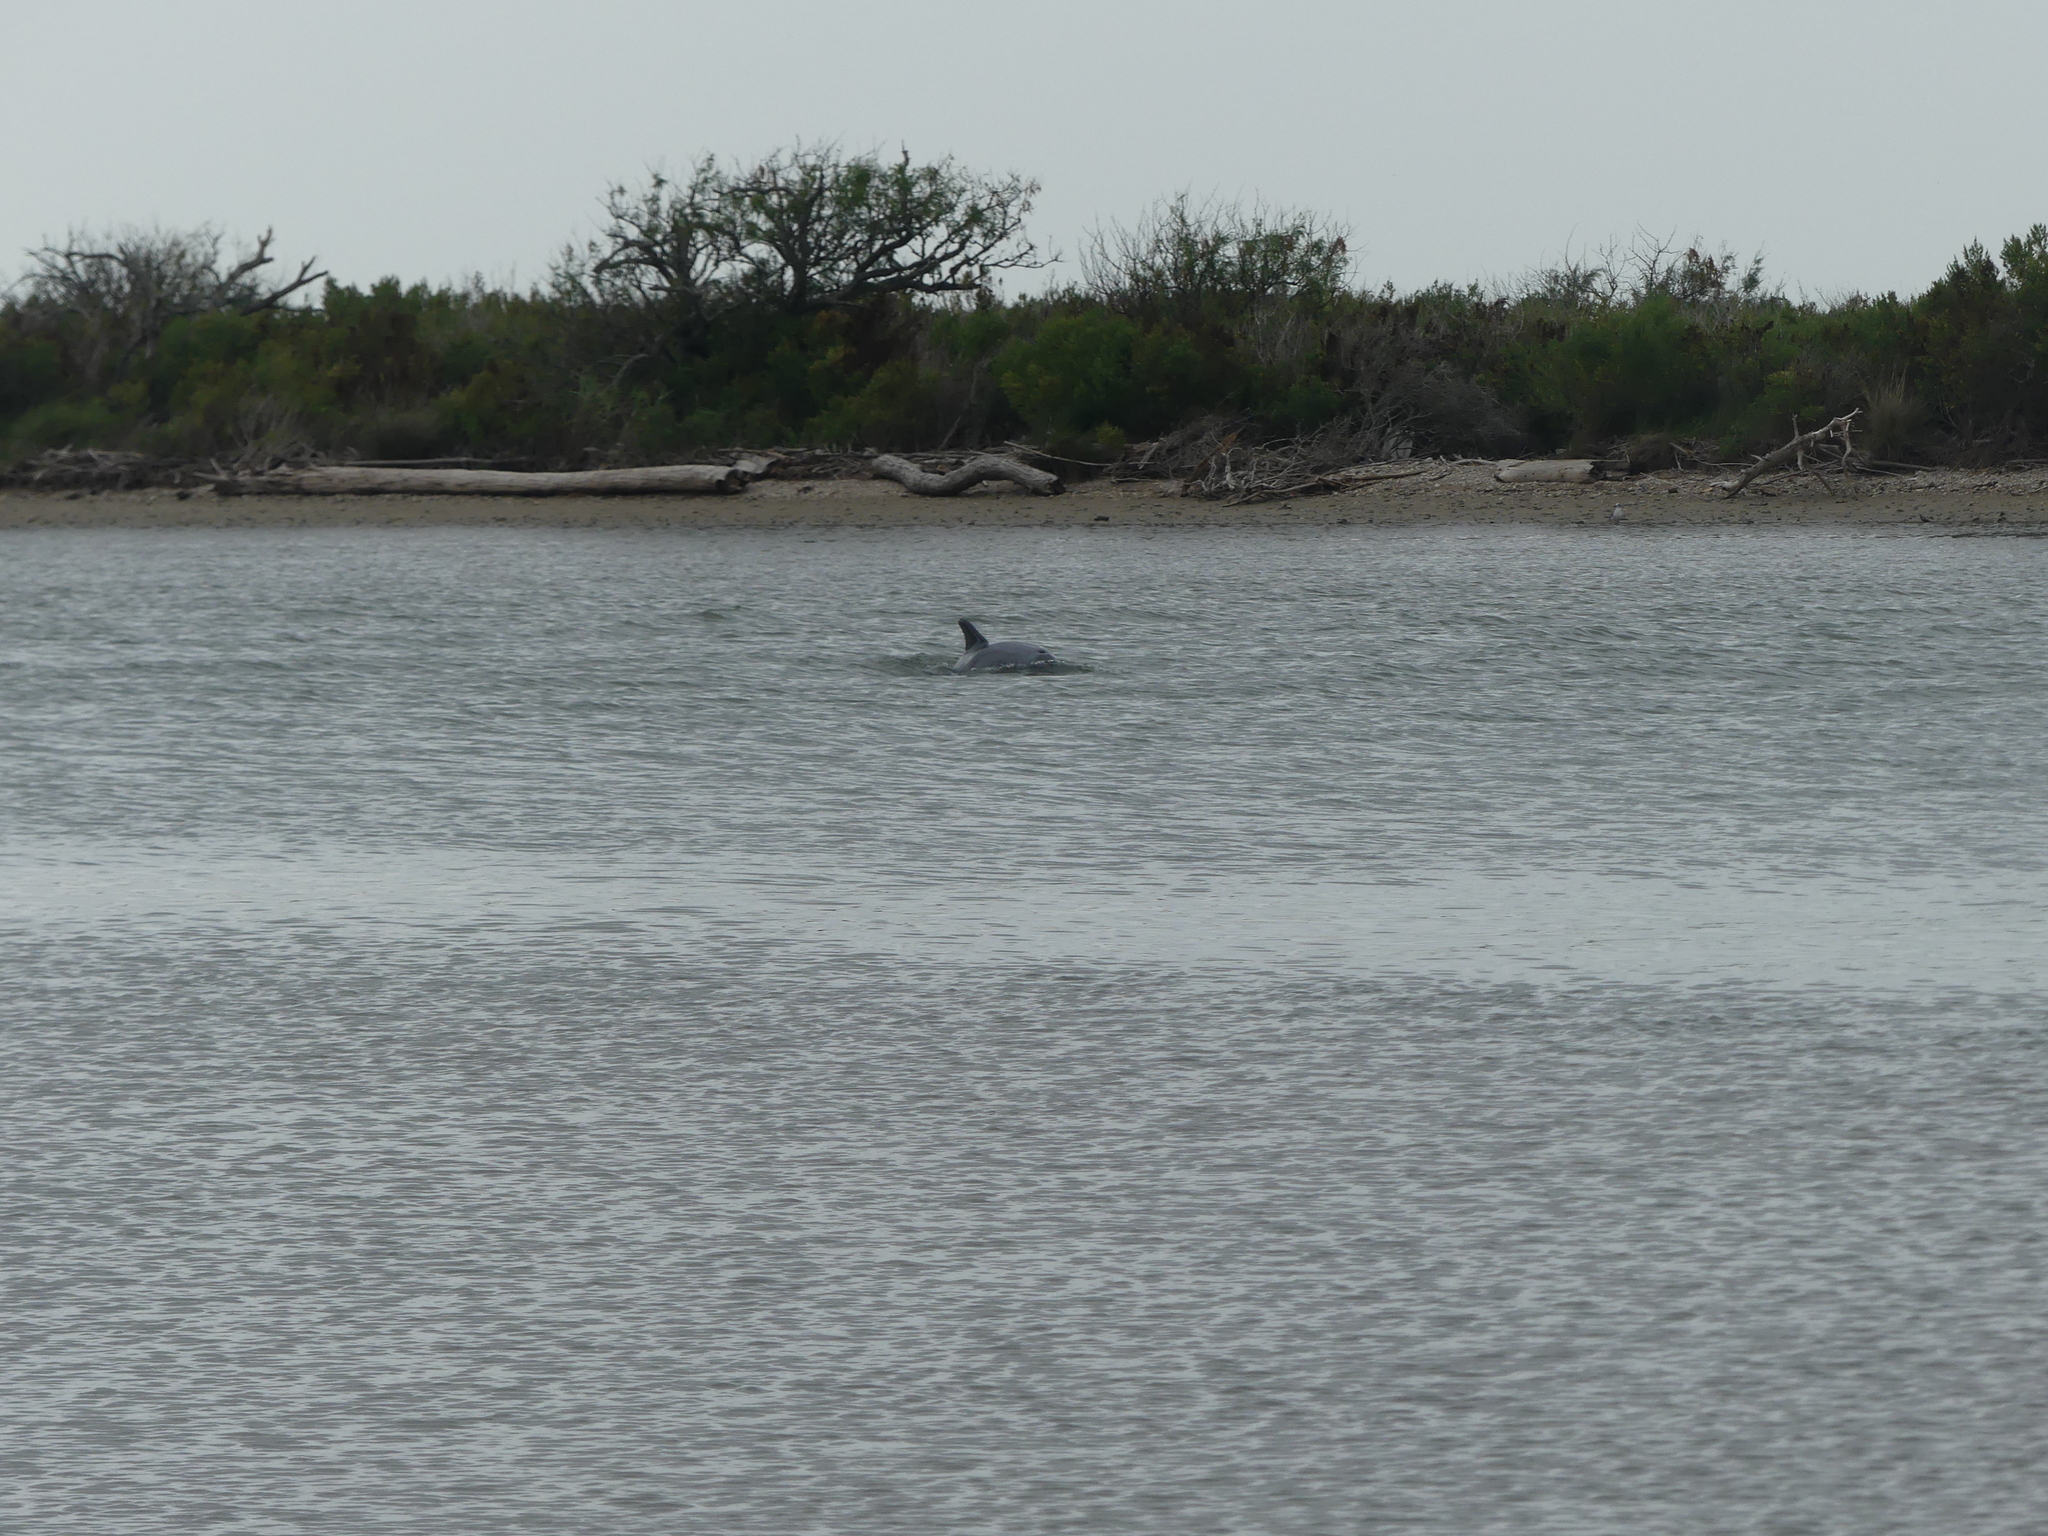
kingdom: Animalia
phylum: Chordata
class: Mammalia
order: Cetacea
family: Delphinidae
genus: Tursiops
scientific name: Tursiops truncatus
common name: Bottlenose dolphin
